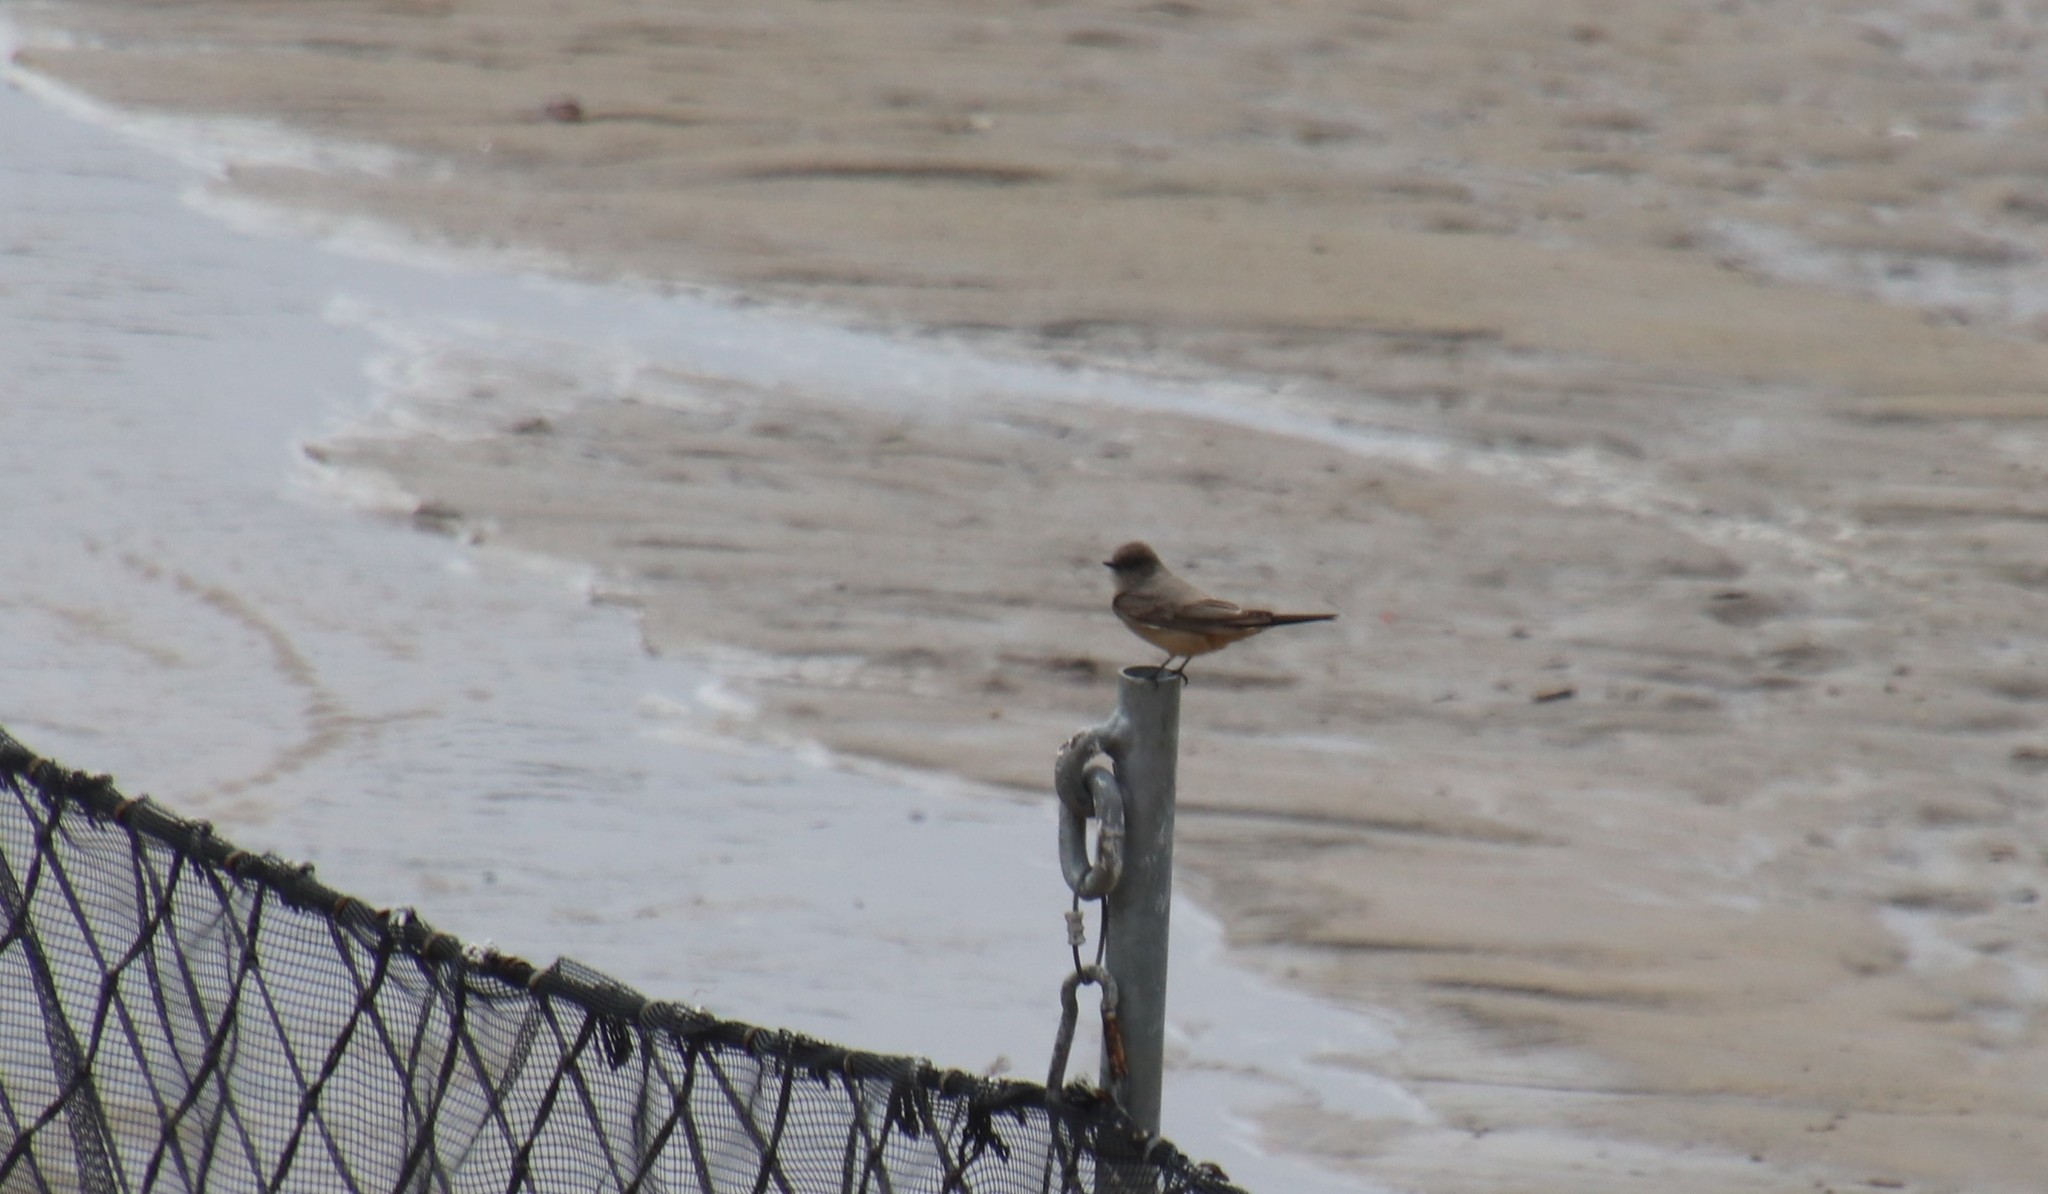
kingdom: Animalia
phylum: Chordata
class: Aves
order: Passeriformes
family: Tyrannidae
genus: Sayornis
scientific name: Sayornis saya
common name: Say's phoebe
